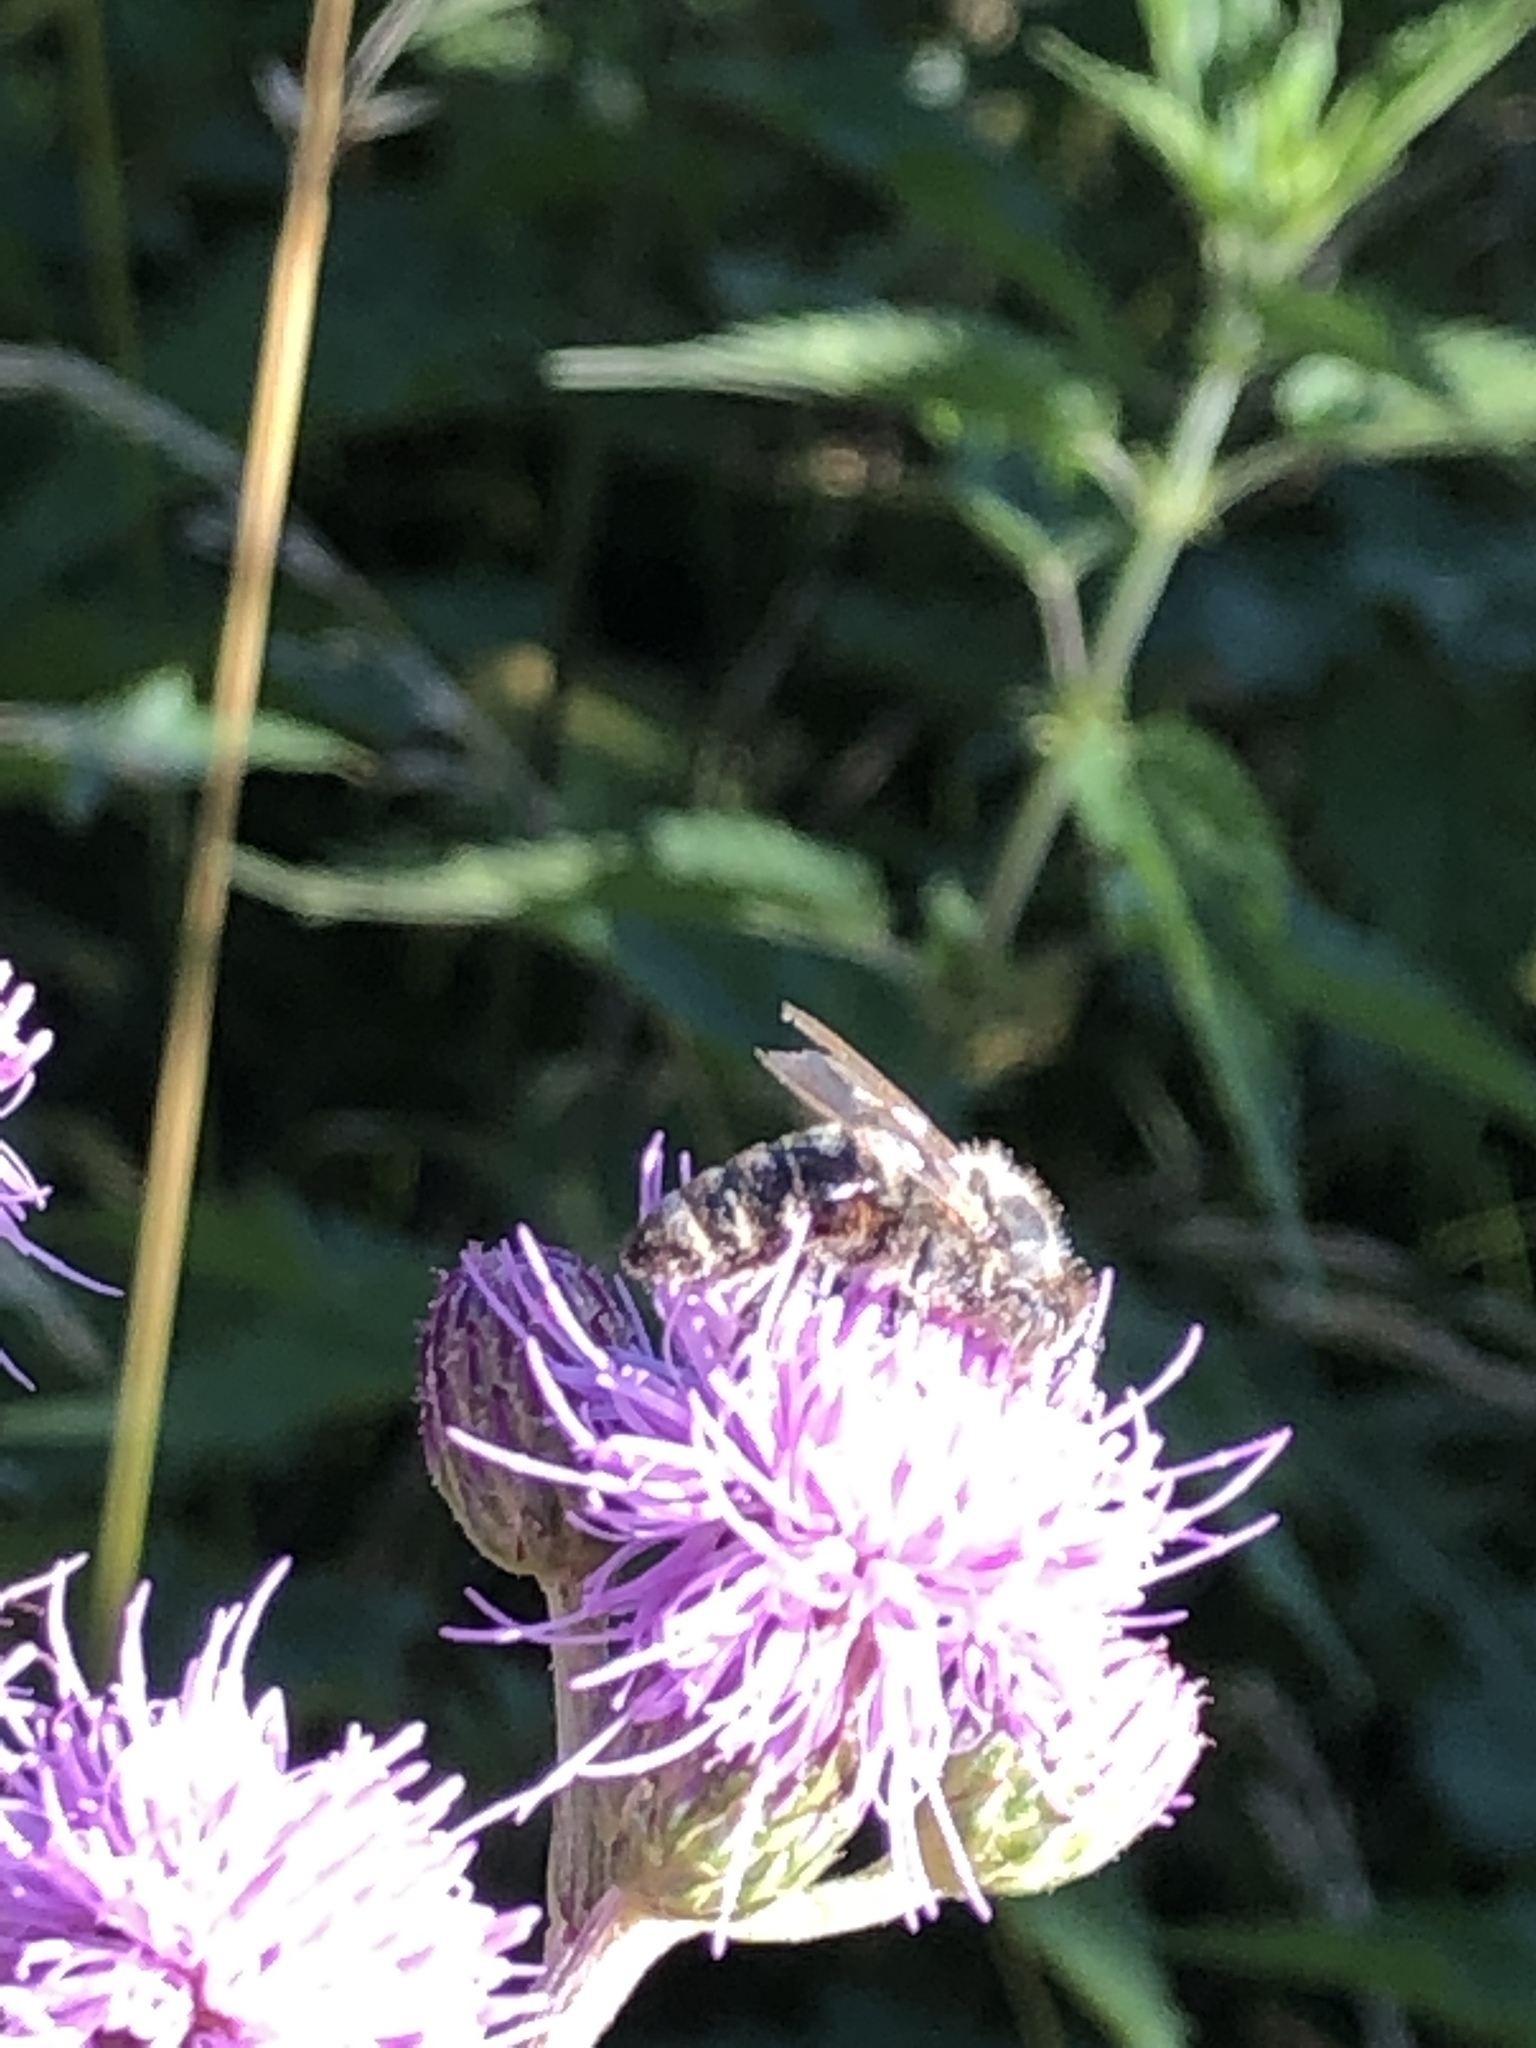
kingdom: Animalia
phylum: Arthropoda
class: Insecta
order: Hymenoptera
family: Apidae
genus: Apis
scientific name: Apis mellifera
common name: Honey bee
